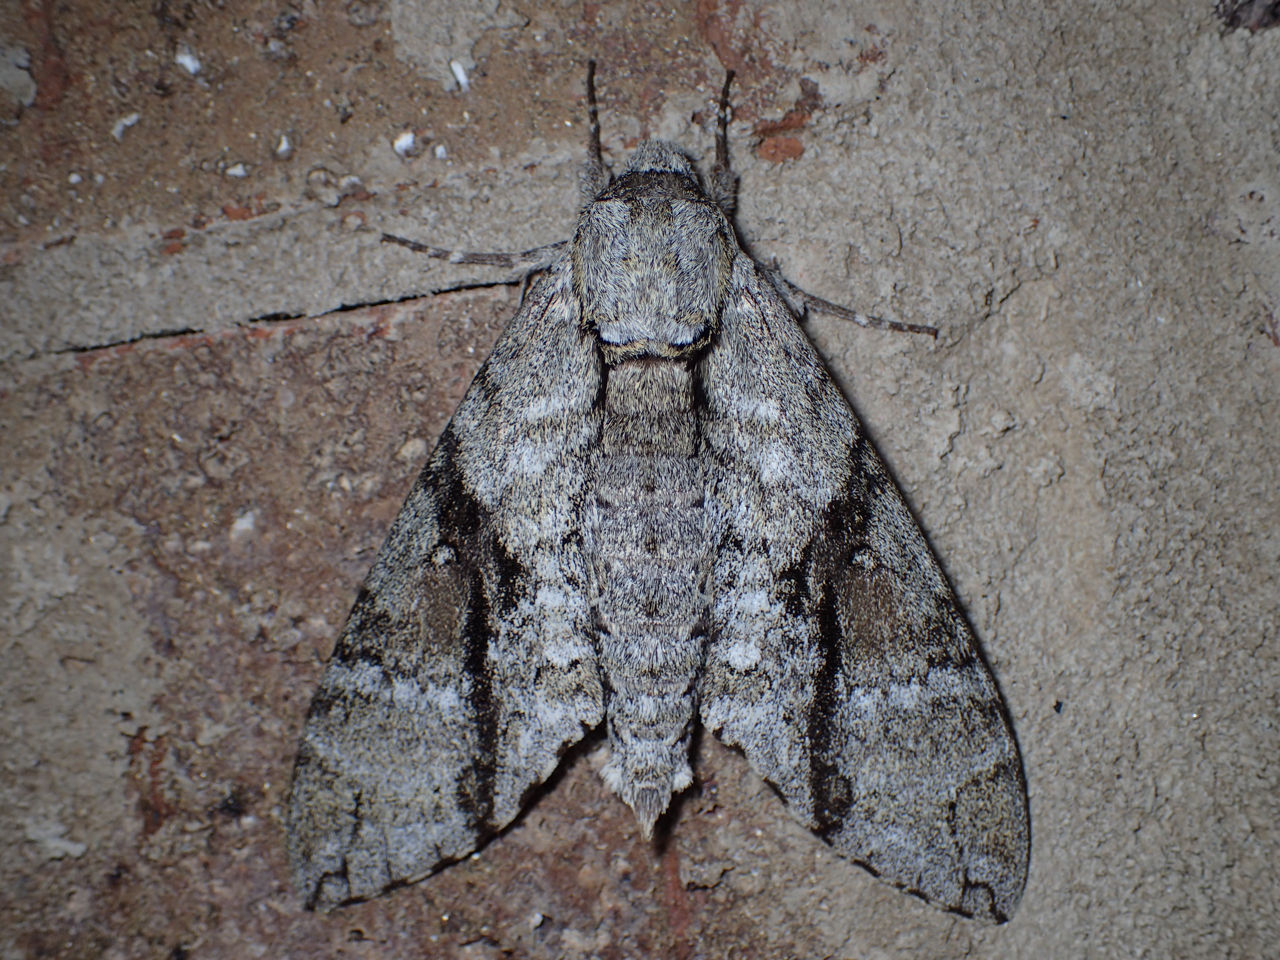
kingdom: Animalia
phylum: Arthropoda
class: Insecta
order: Lepidoptera
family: Sphingidae
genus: Manduca
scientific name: Manduca jasminearum
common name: Ash sphinx
